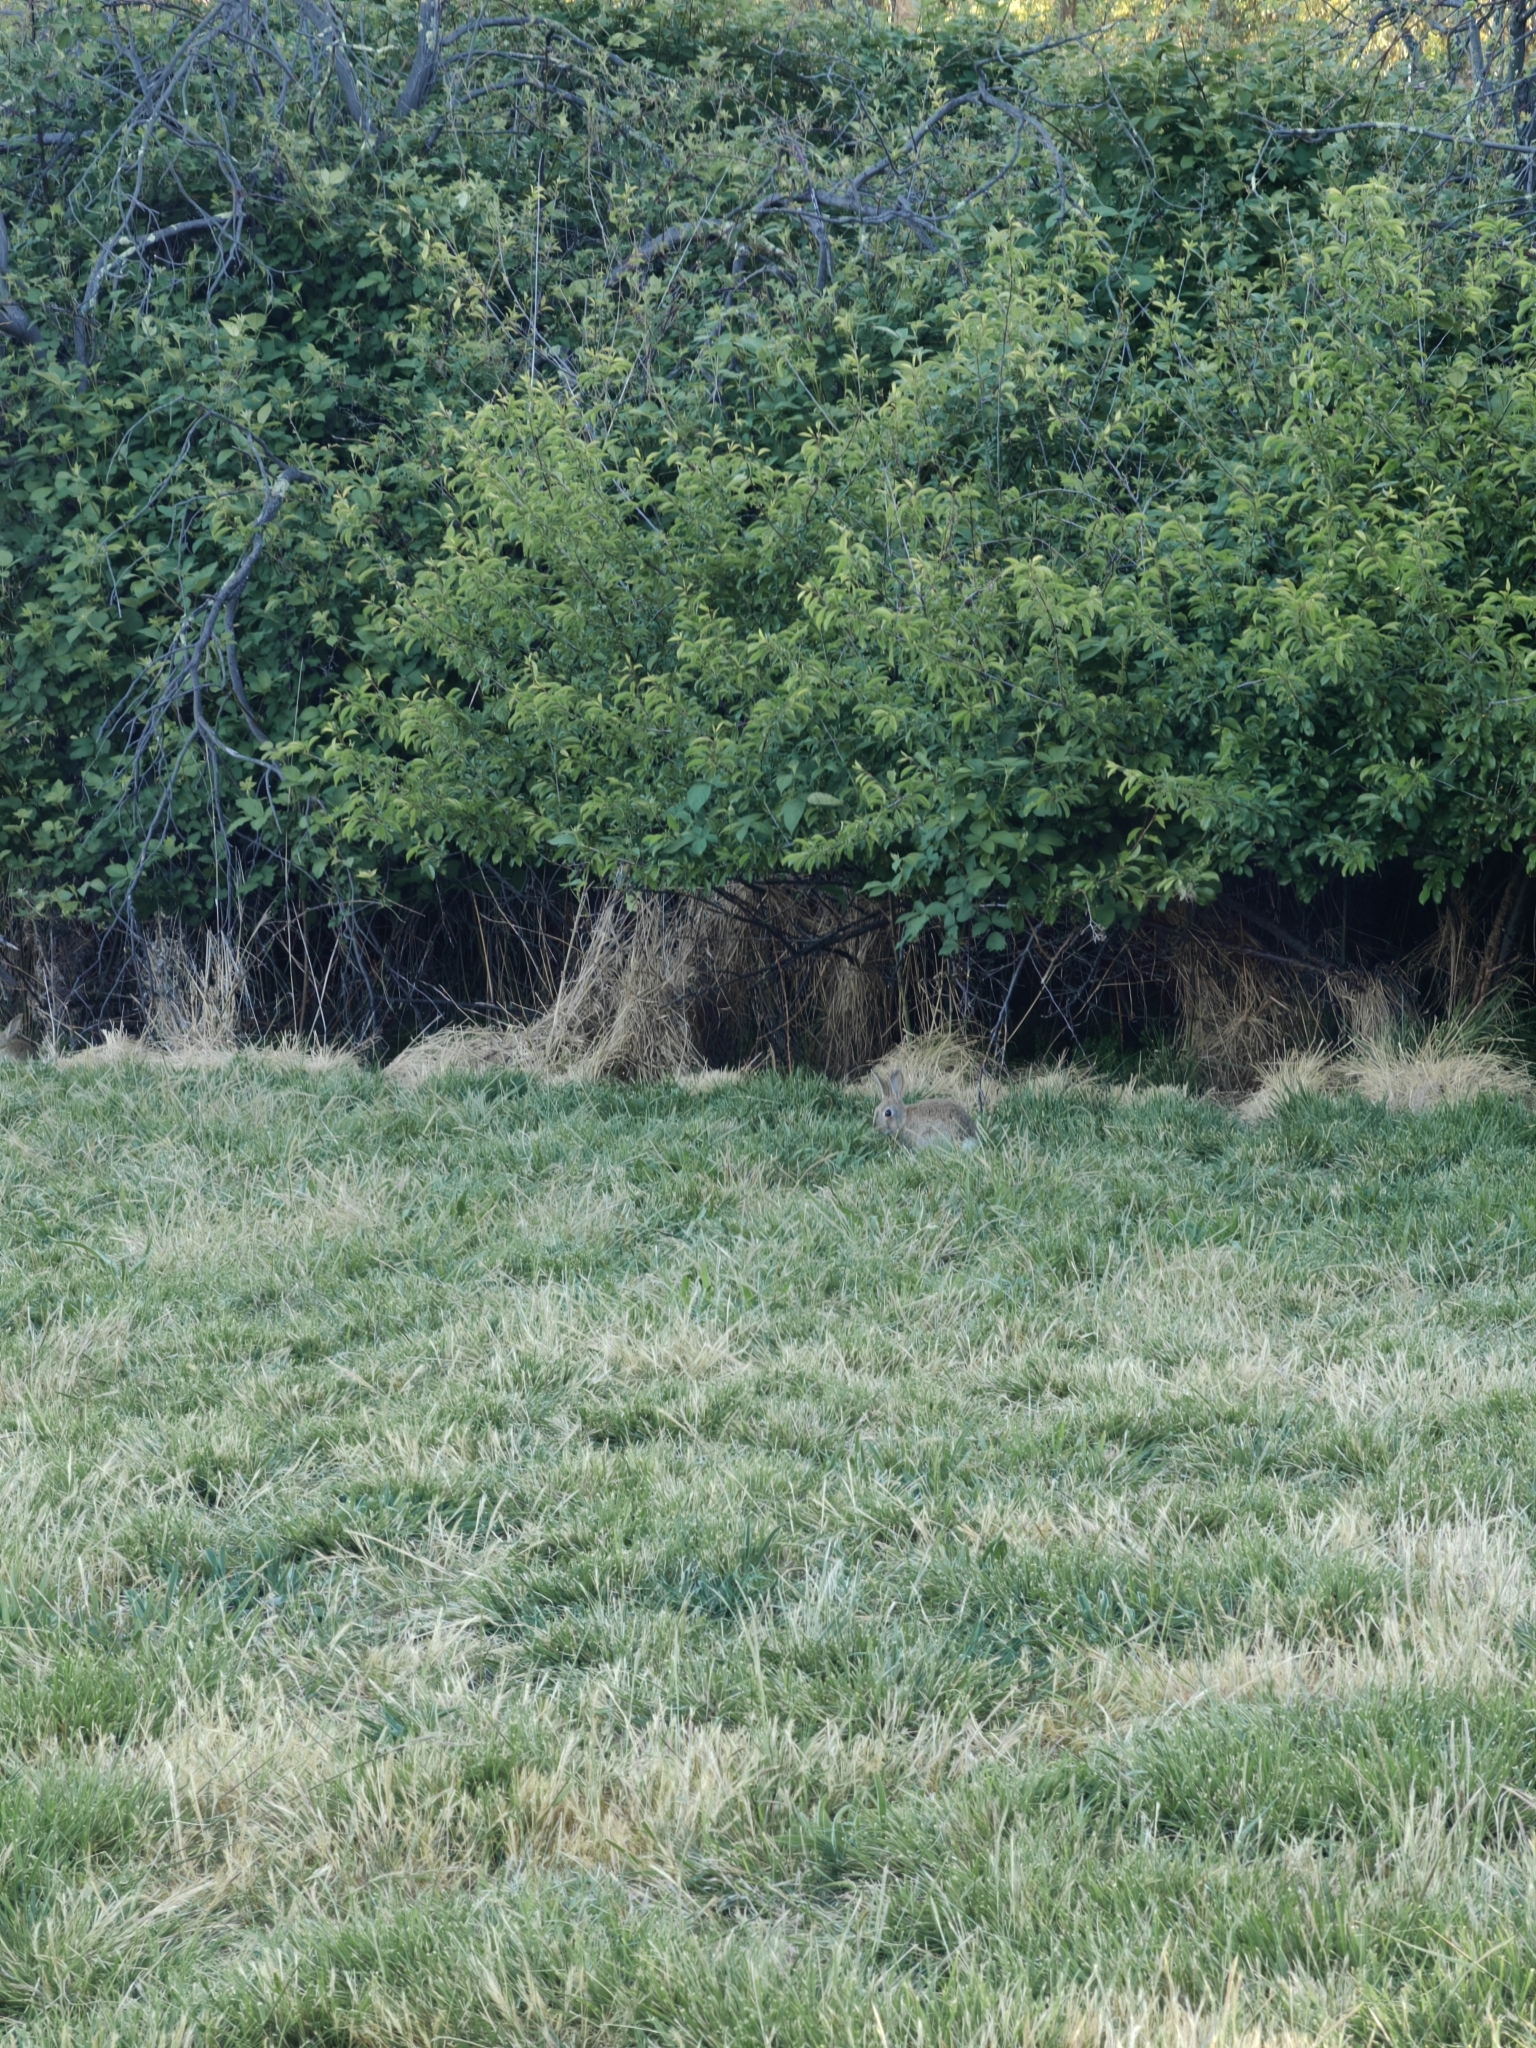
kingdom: Animalia
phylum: Chordata
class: Mammalia
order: Lagomorpha
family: Leporidae
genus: Oryctolagus
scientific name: Oryctolagus cuniculus
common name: European rabbit
